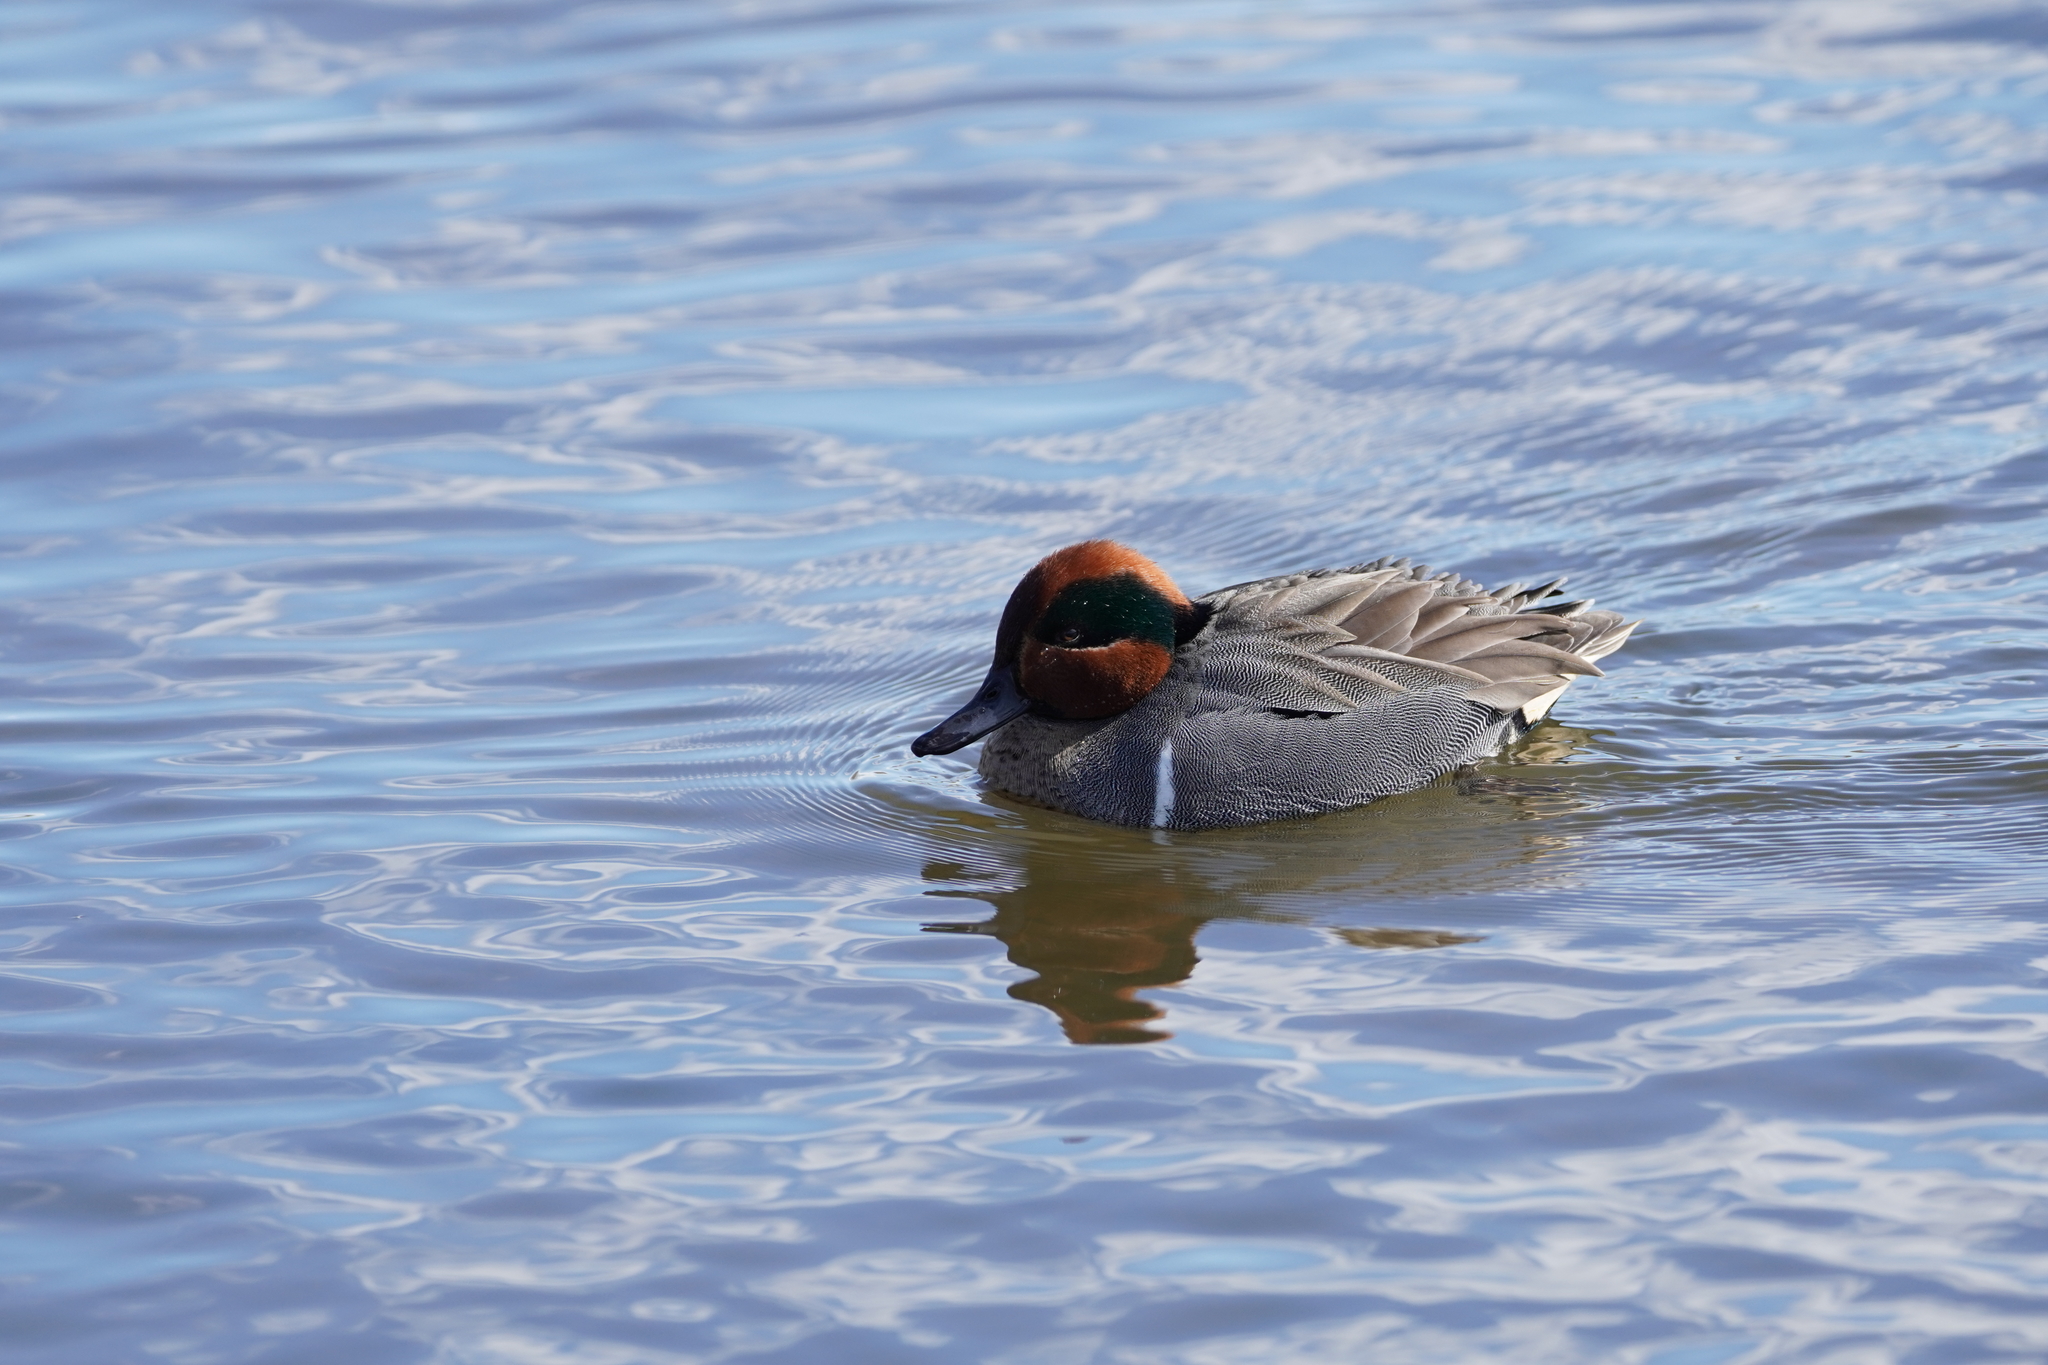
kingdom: Animalia
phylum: Chordata
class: Aves
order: Anseriformes
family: Anatidae
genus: Anas
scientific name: Anas crecca
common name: Eurasian teal
